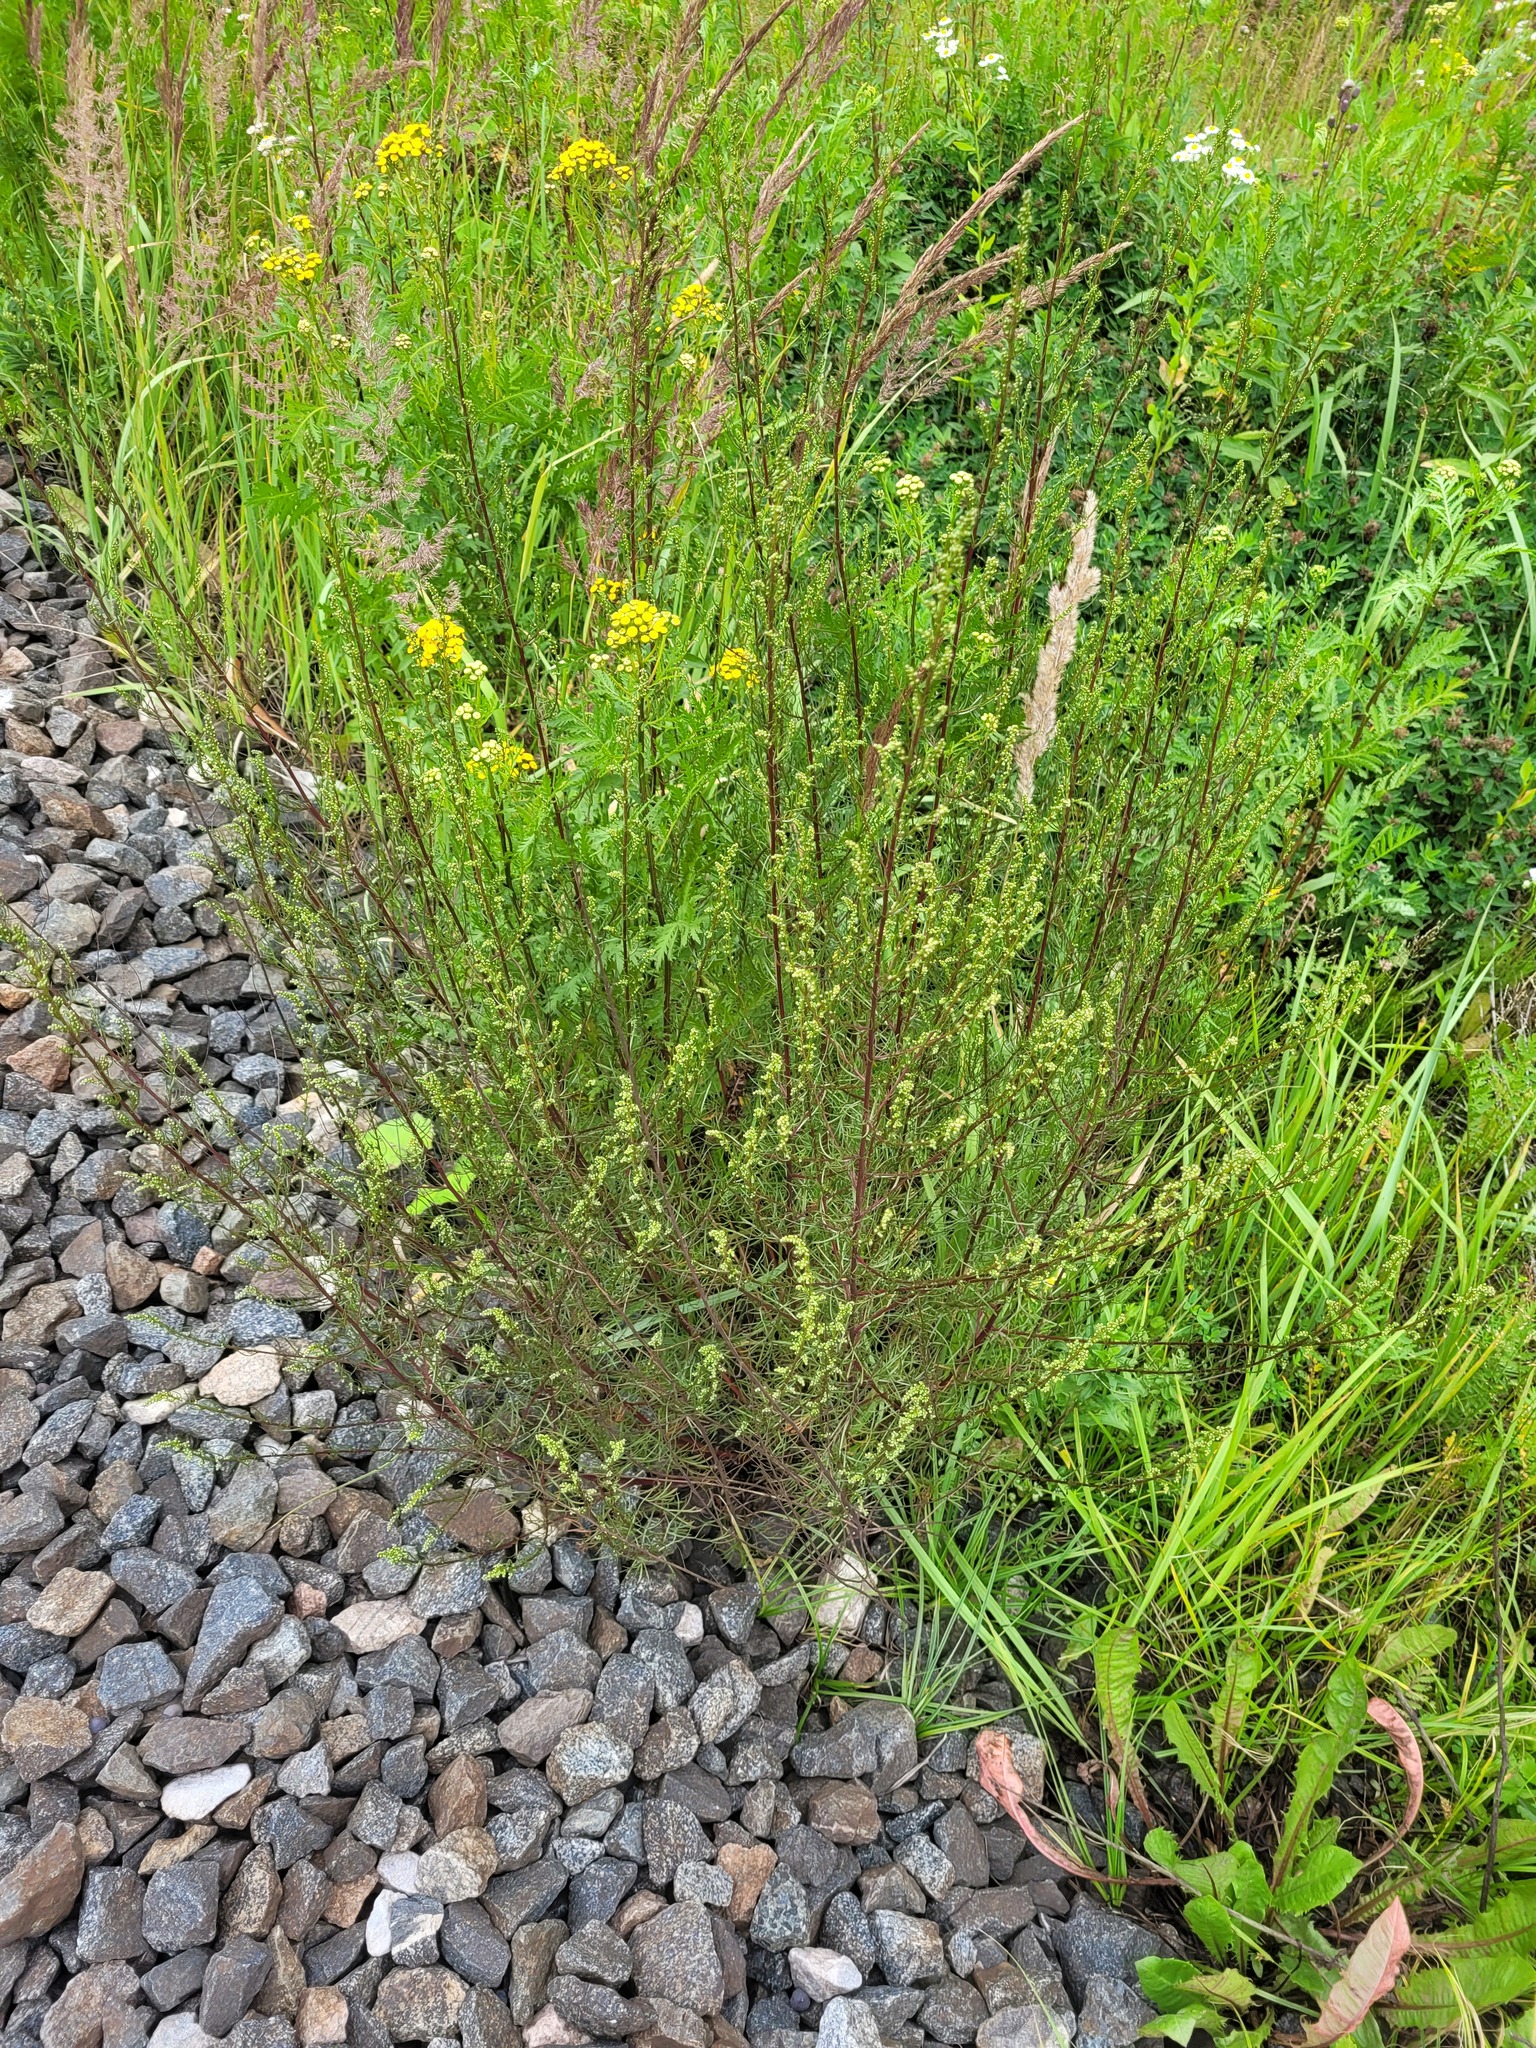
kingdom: Plantae
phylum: Tracheophyta
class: Magnoliopsida
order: Asterales
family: Asteraceae
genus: Artemisia
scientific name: Artemisia campestris
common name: Field wormwood
